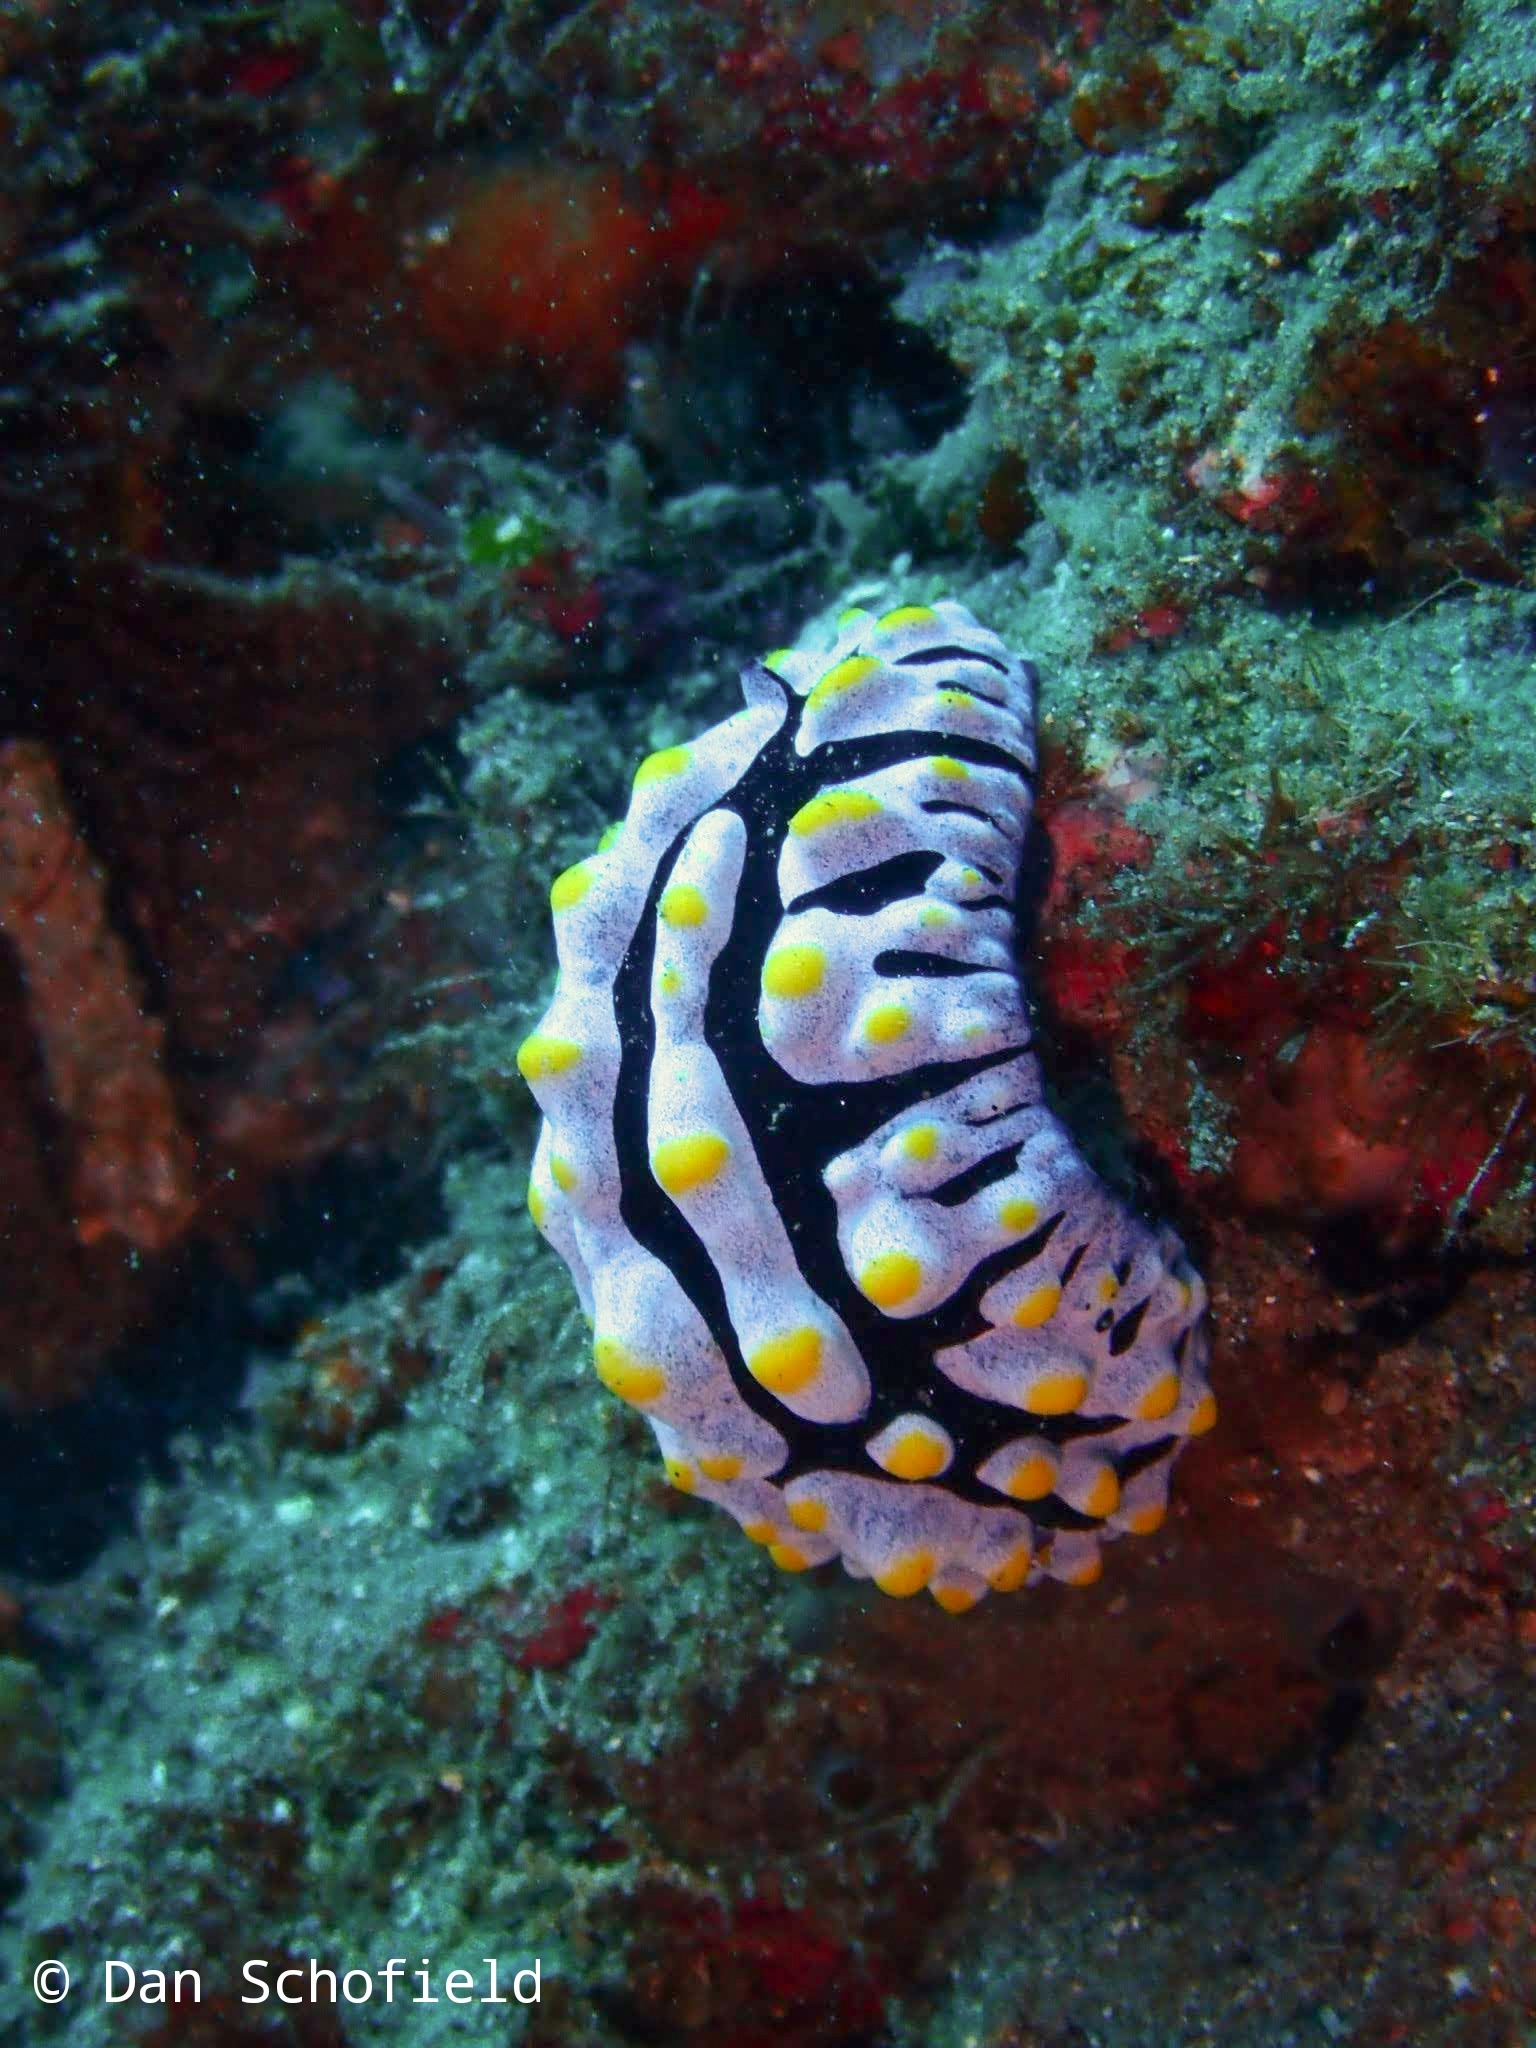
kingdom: Animalia
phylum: Mollusca
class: Gastropoda
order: Nudibranchia
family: Phyllidiidae
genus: Phyllidia
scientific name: Phyllidia varicosa
